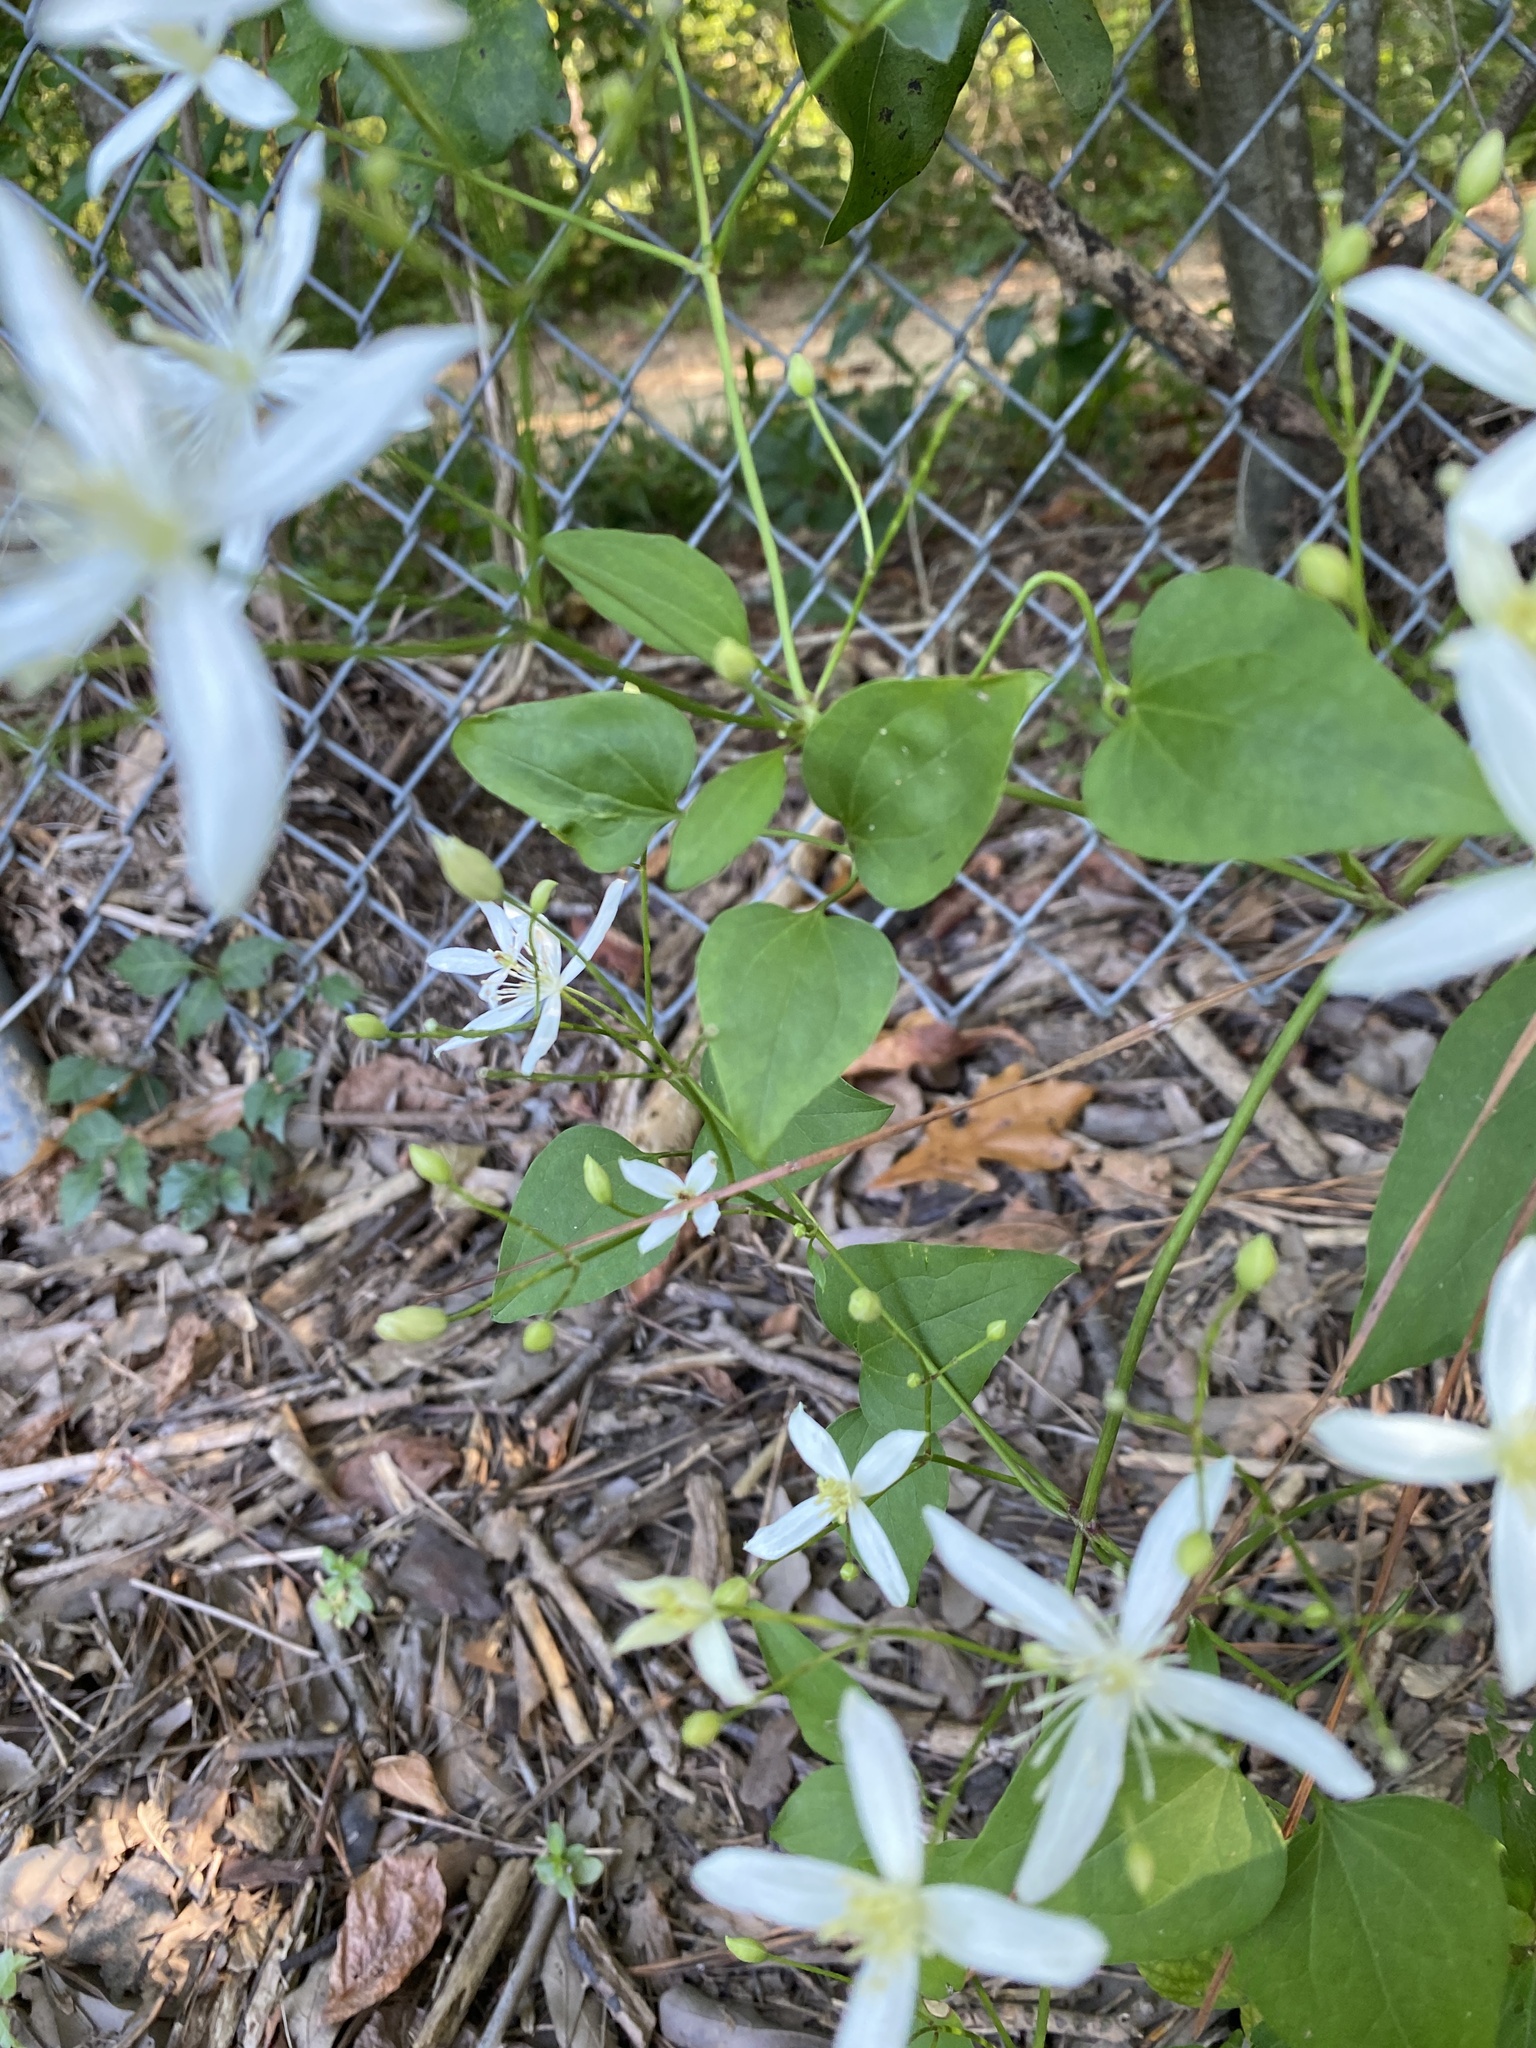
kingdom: Plantae
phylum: Tracheophyta
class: Magnoliopsida
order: Ranunculales
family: Ranunculaceae
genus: Clematis
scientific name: Clematis terniflora
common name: Sweet autumn clematis
